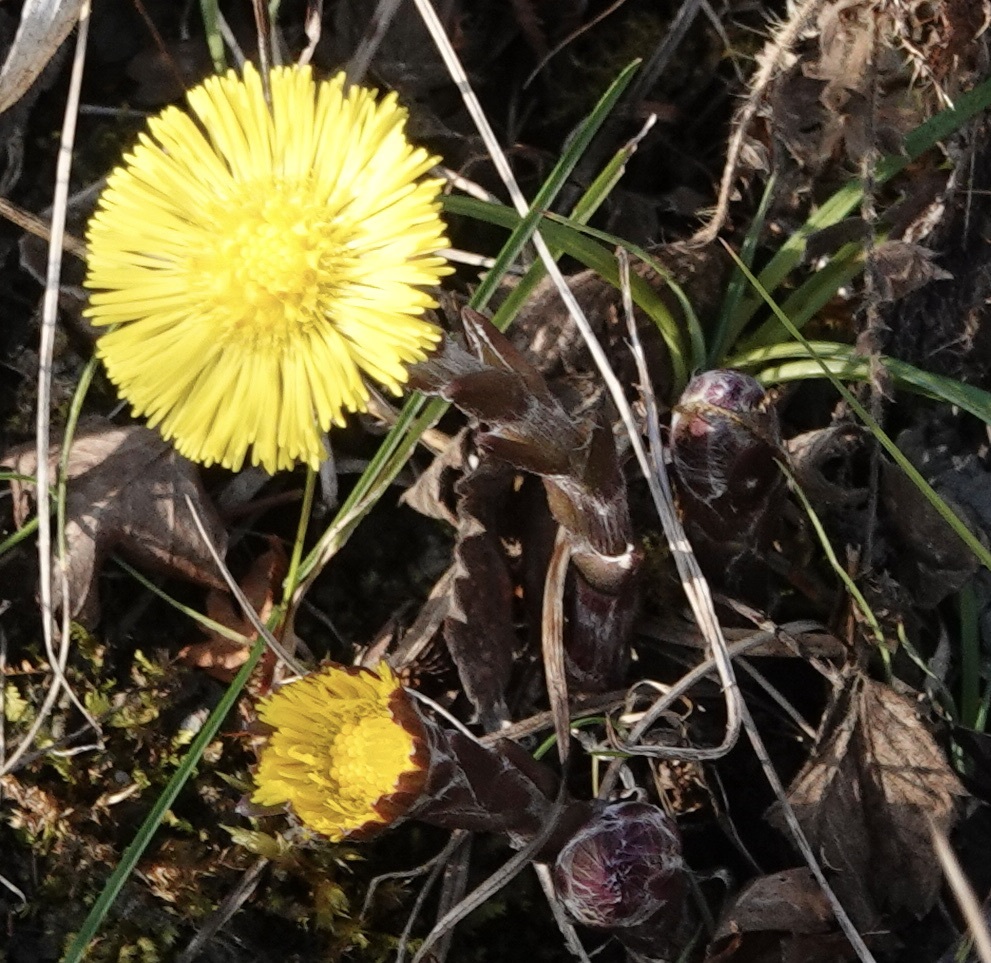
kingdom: Plantae
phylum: Tracheophyta
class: Magnoliopsida
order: Asterales
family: Asteraceae
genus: Tussilago
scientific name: Tussilago farfara
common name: Coltsfoot
